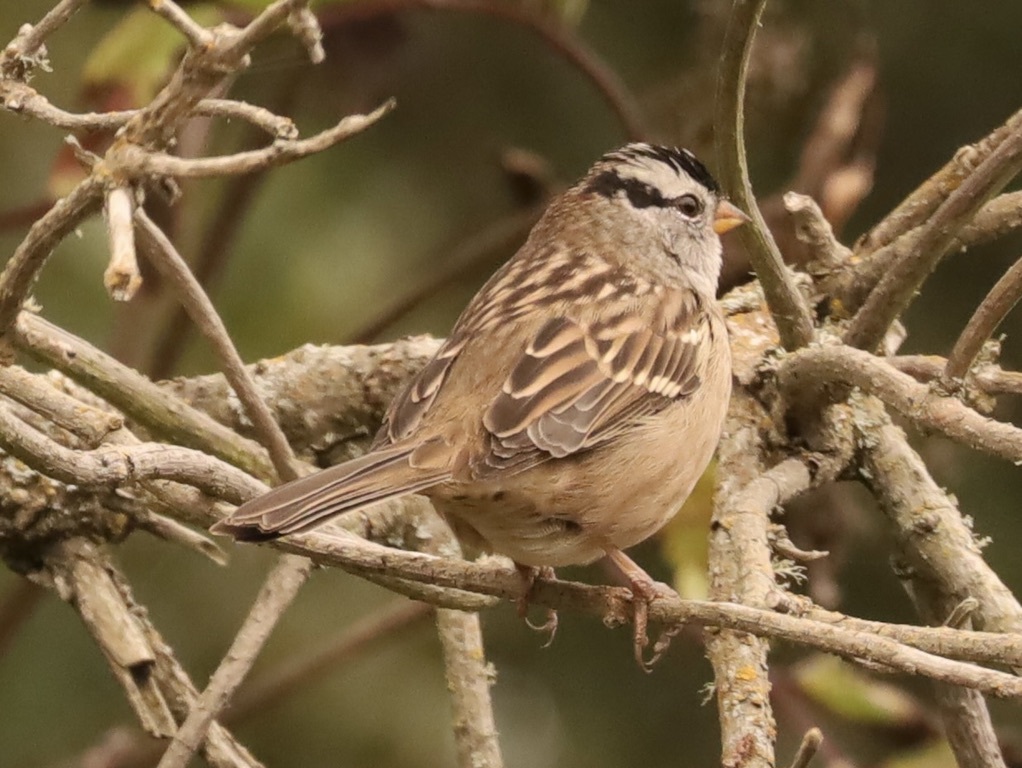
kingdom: Animalia
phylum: Chordata
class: Aves
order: Passeriformes
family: Passerellidae
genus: Zonotrichia
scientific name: Zonotrichia leucophrys
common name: White-crowned sparrow
